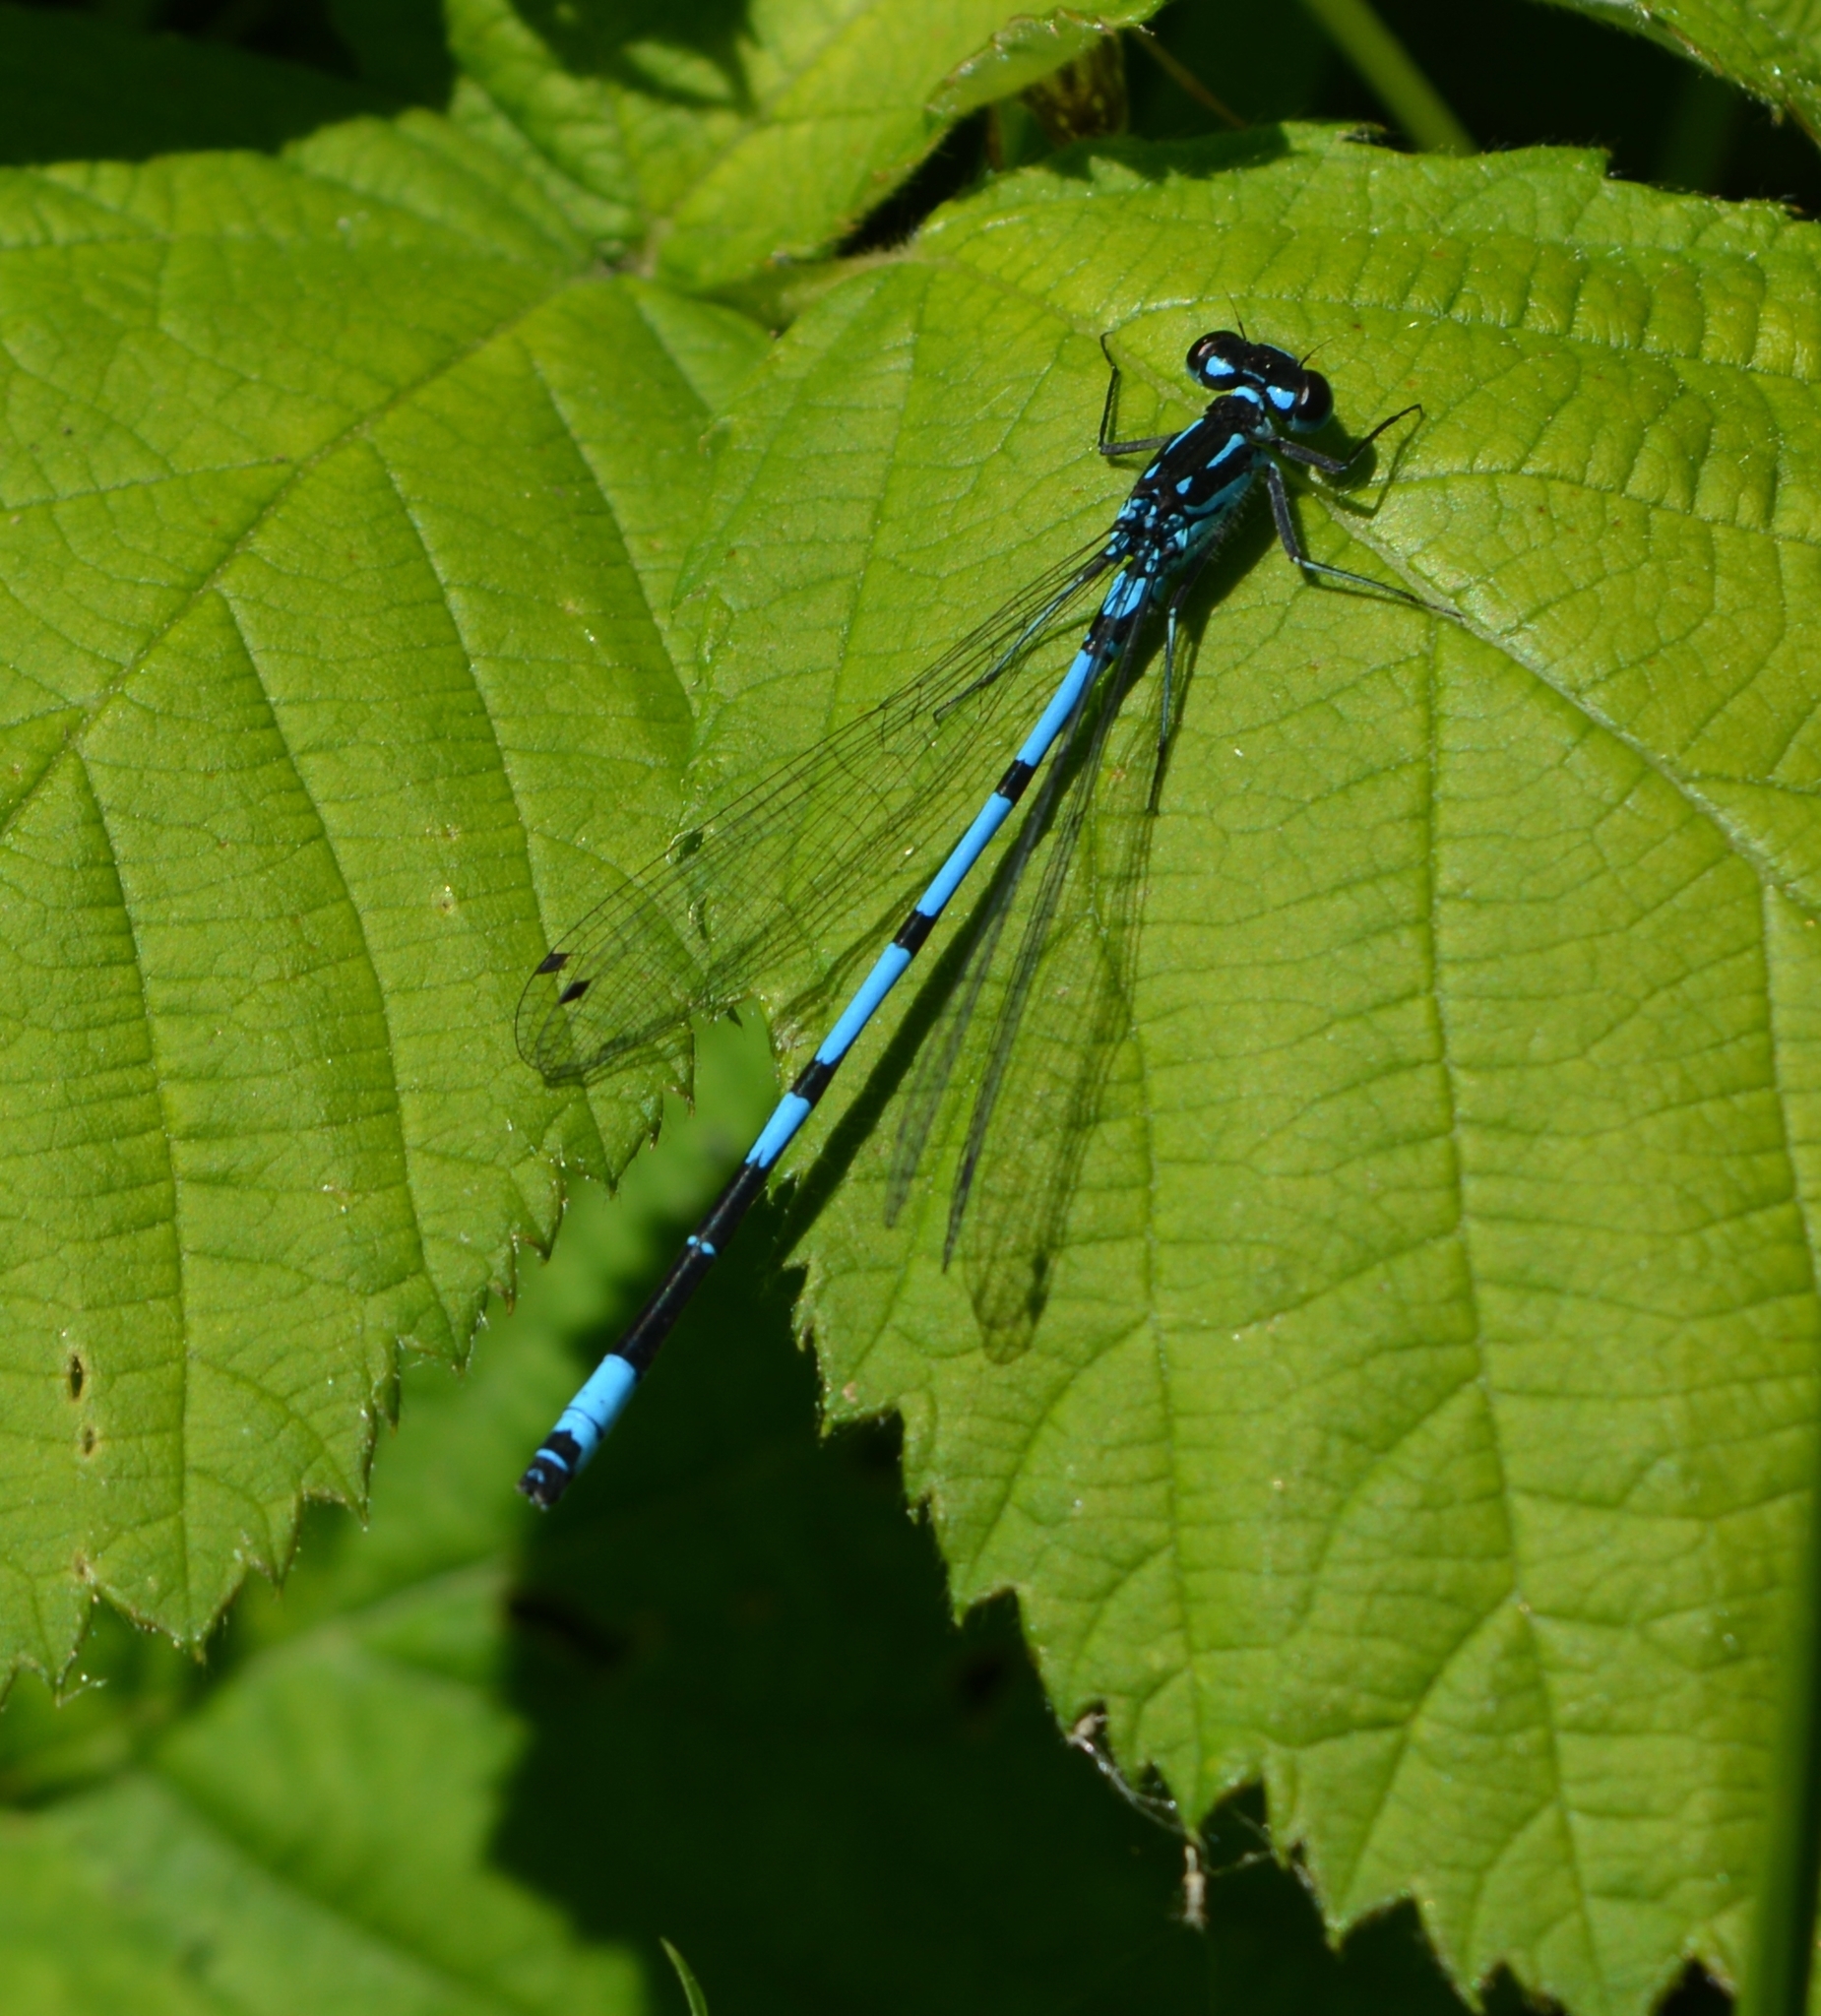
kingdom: Animalia
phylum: Arthropoda
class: Insecta
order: Odonata
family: Coenagrionidae
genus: Coenagrion
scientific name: Coenagrion pulchellum
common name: Variable bluet
